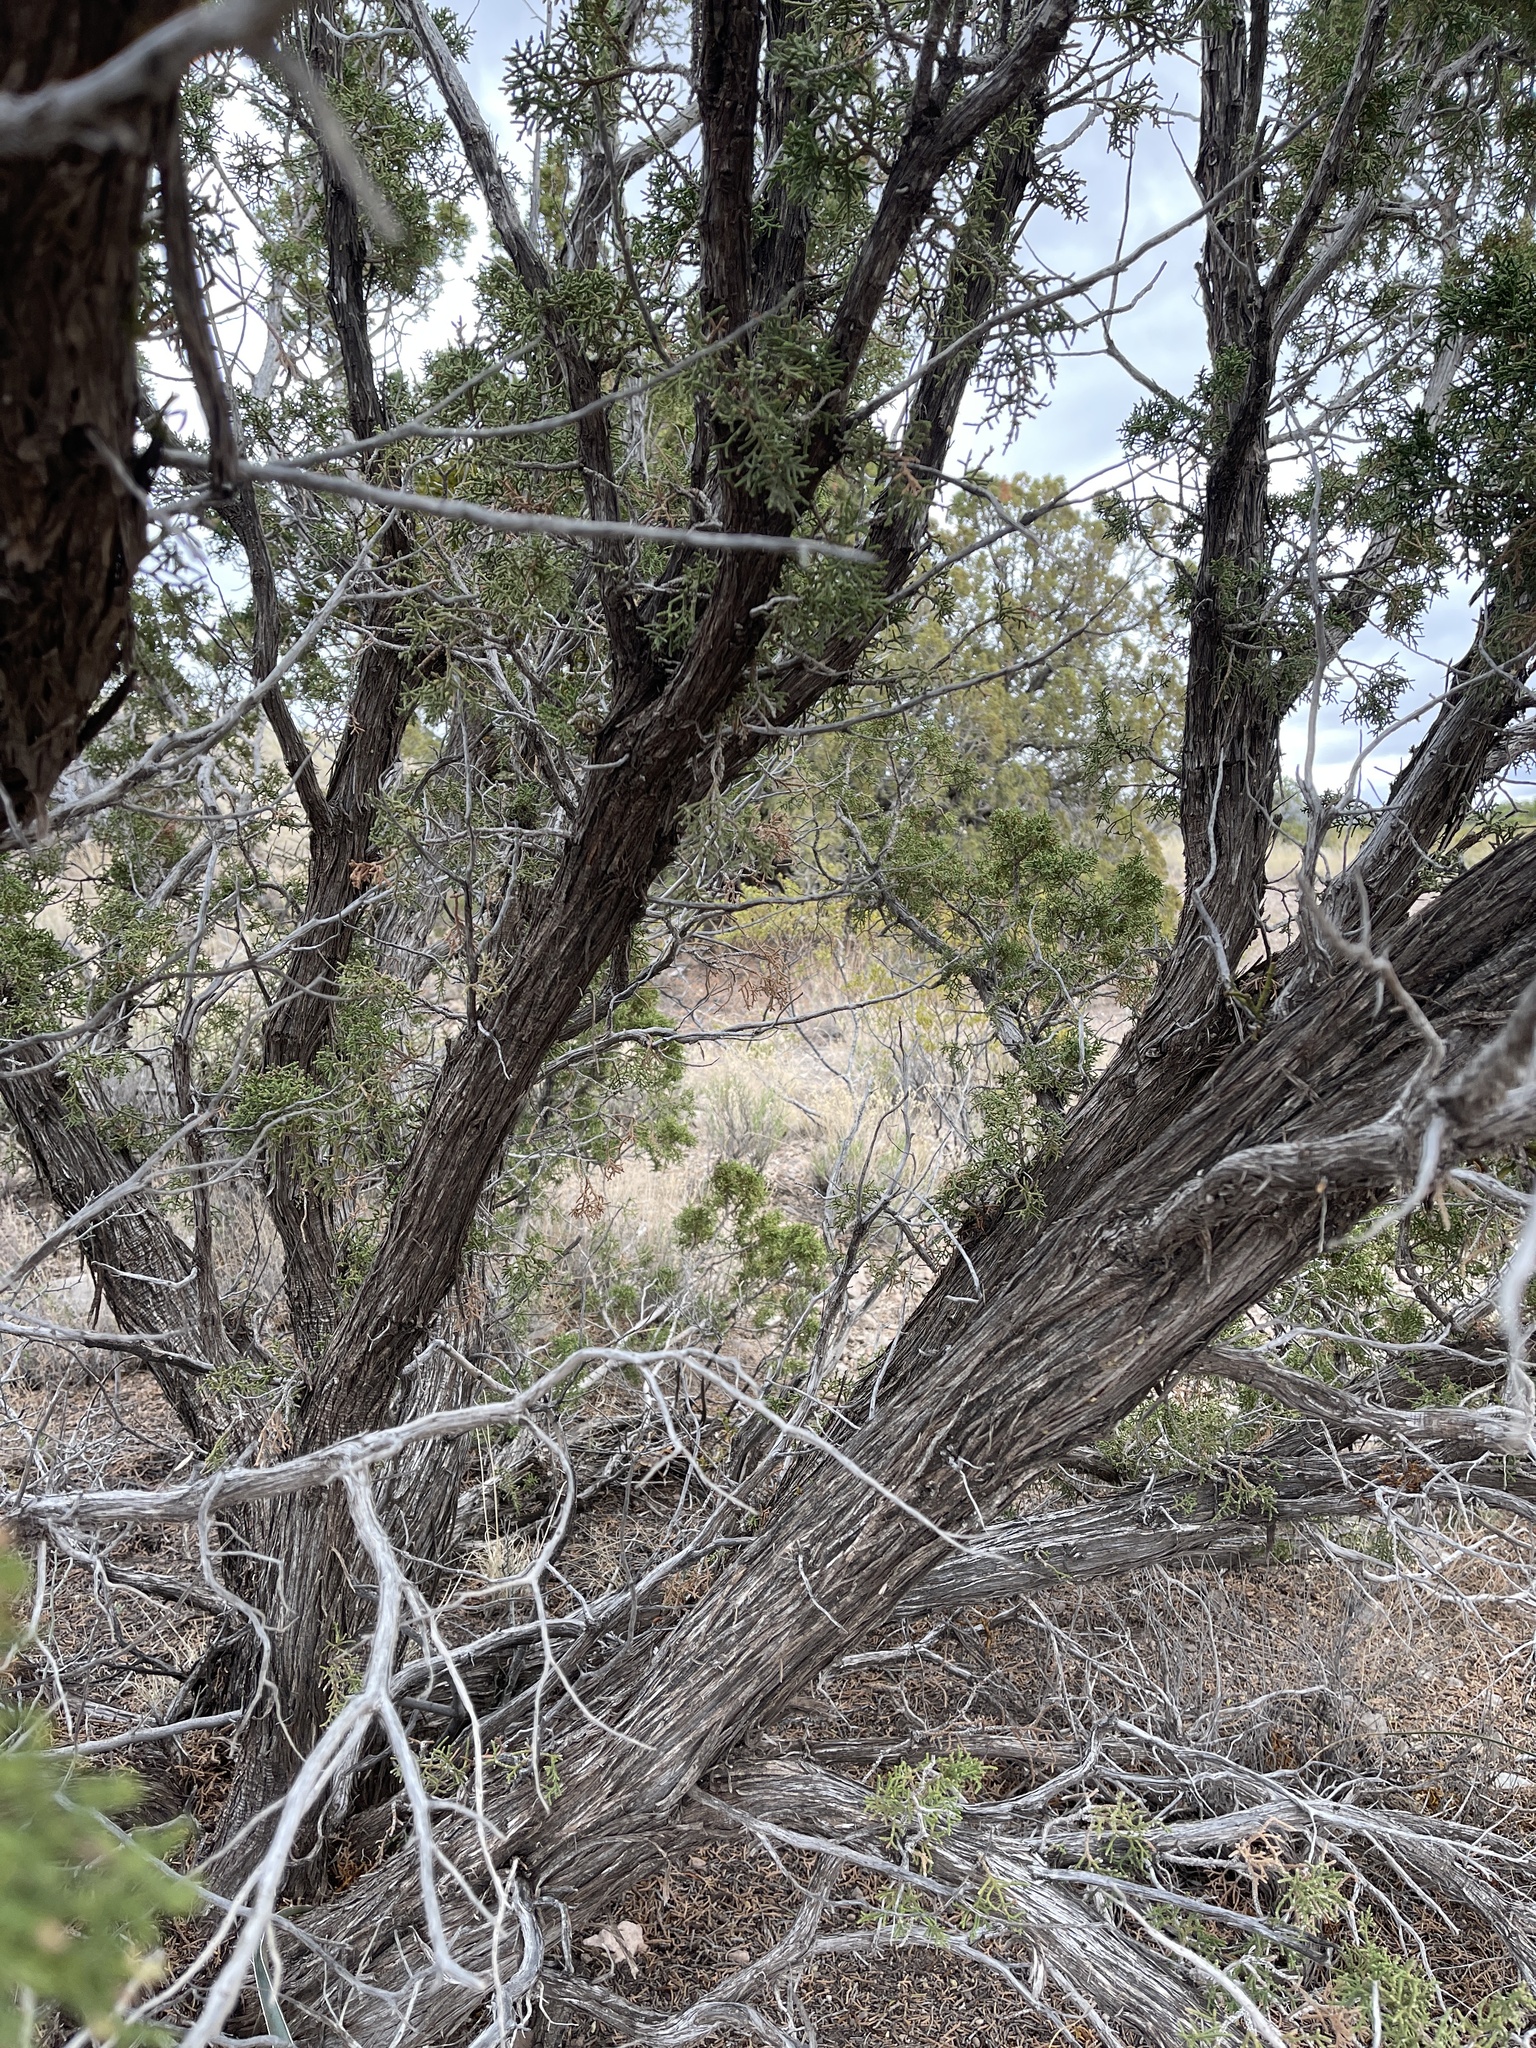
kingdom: Plantae
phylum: Tracheophyta
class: Pinopsida
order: Pinales
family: Cupressaceae
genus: Juniperus
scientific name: Juniperus monosperma
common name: One-seed juniper
